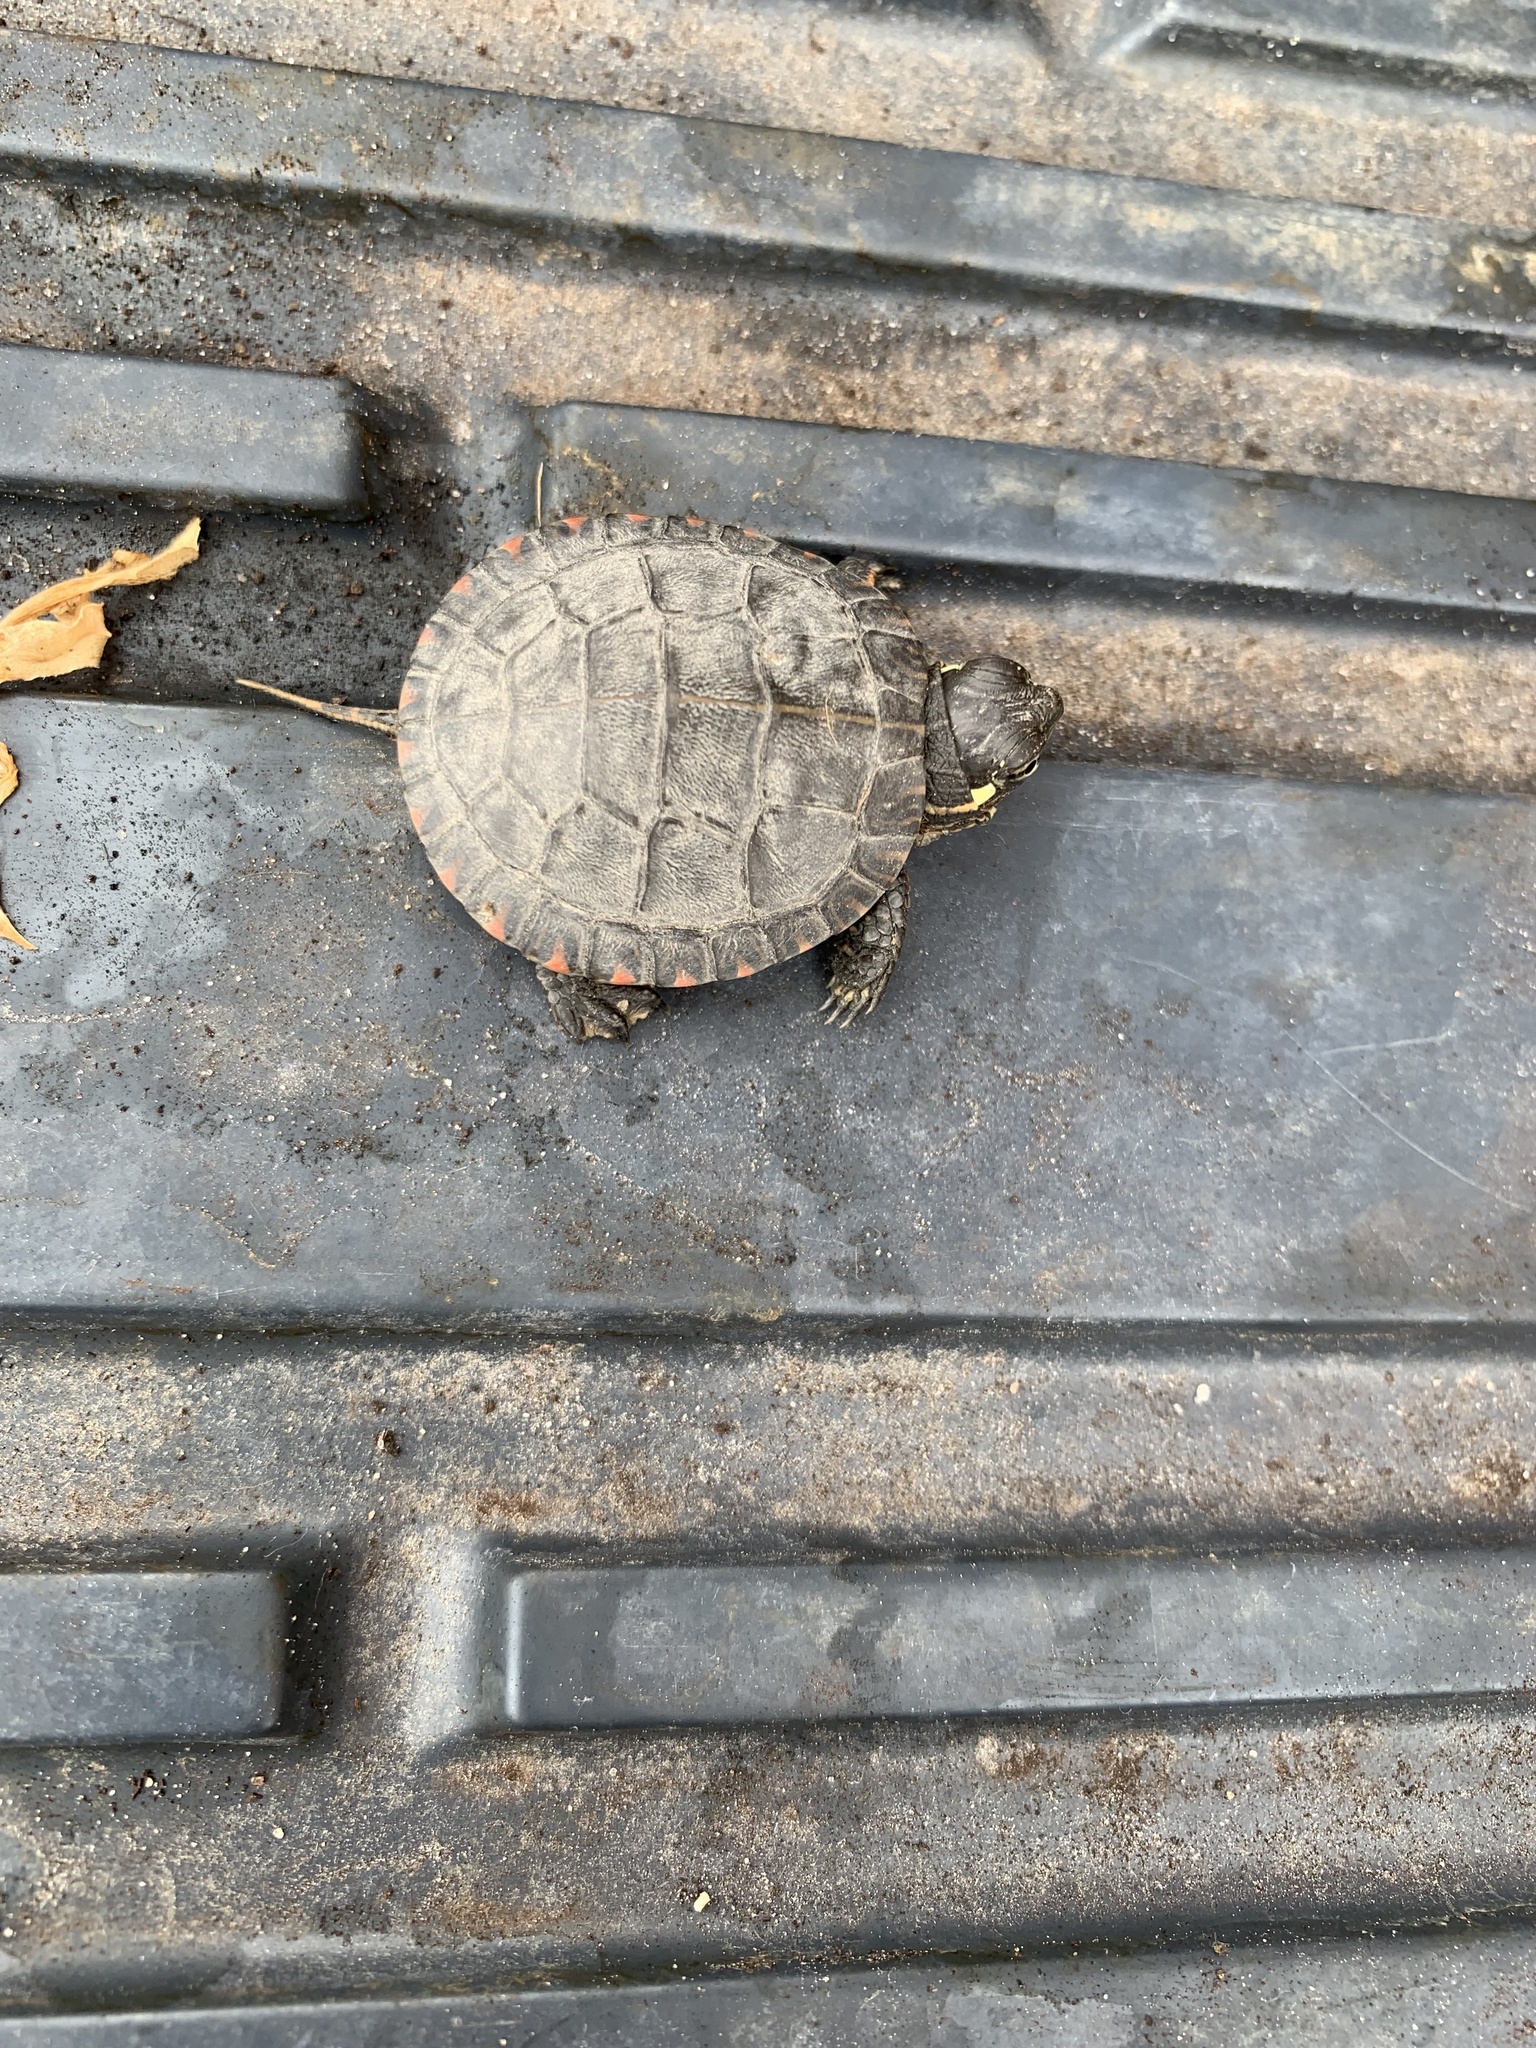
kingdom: Animalia
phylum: Chordata
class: Testudines
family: Emydidae
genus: Chrysemys
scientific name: Chrysemys picta
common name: Painted turtle
